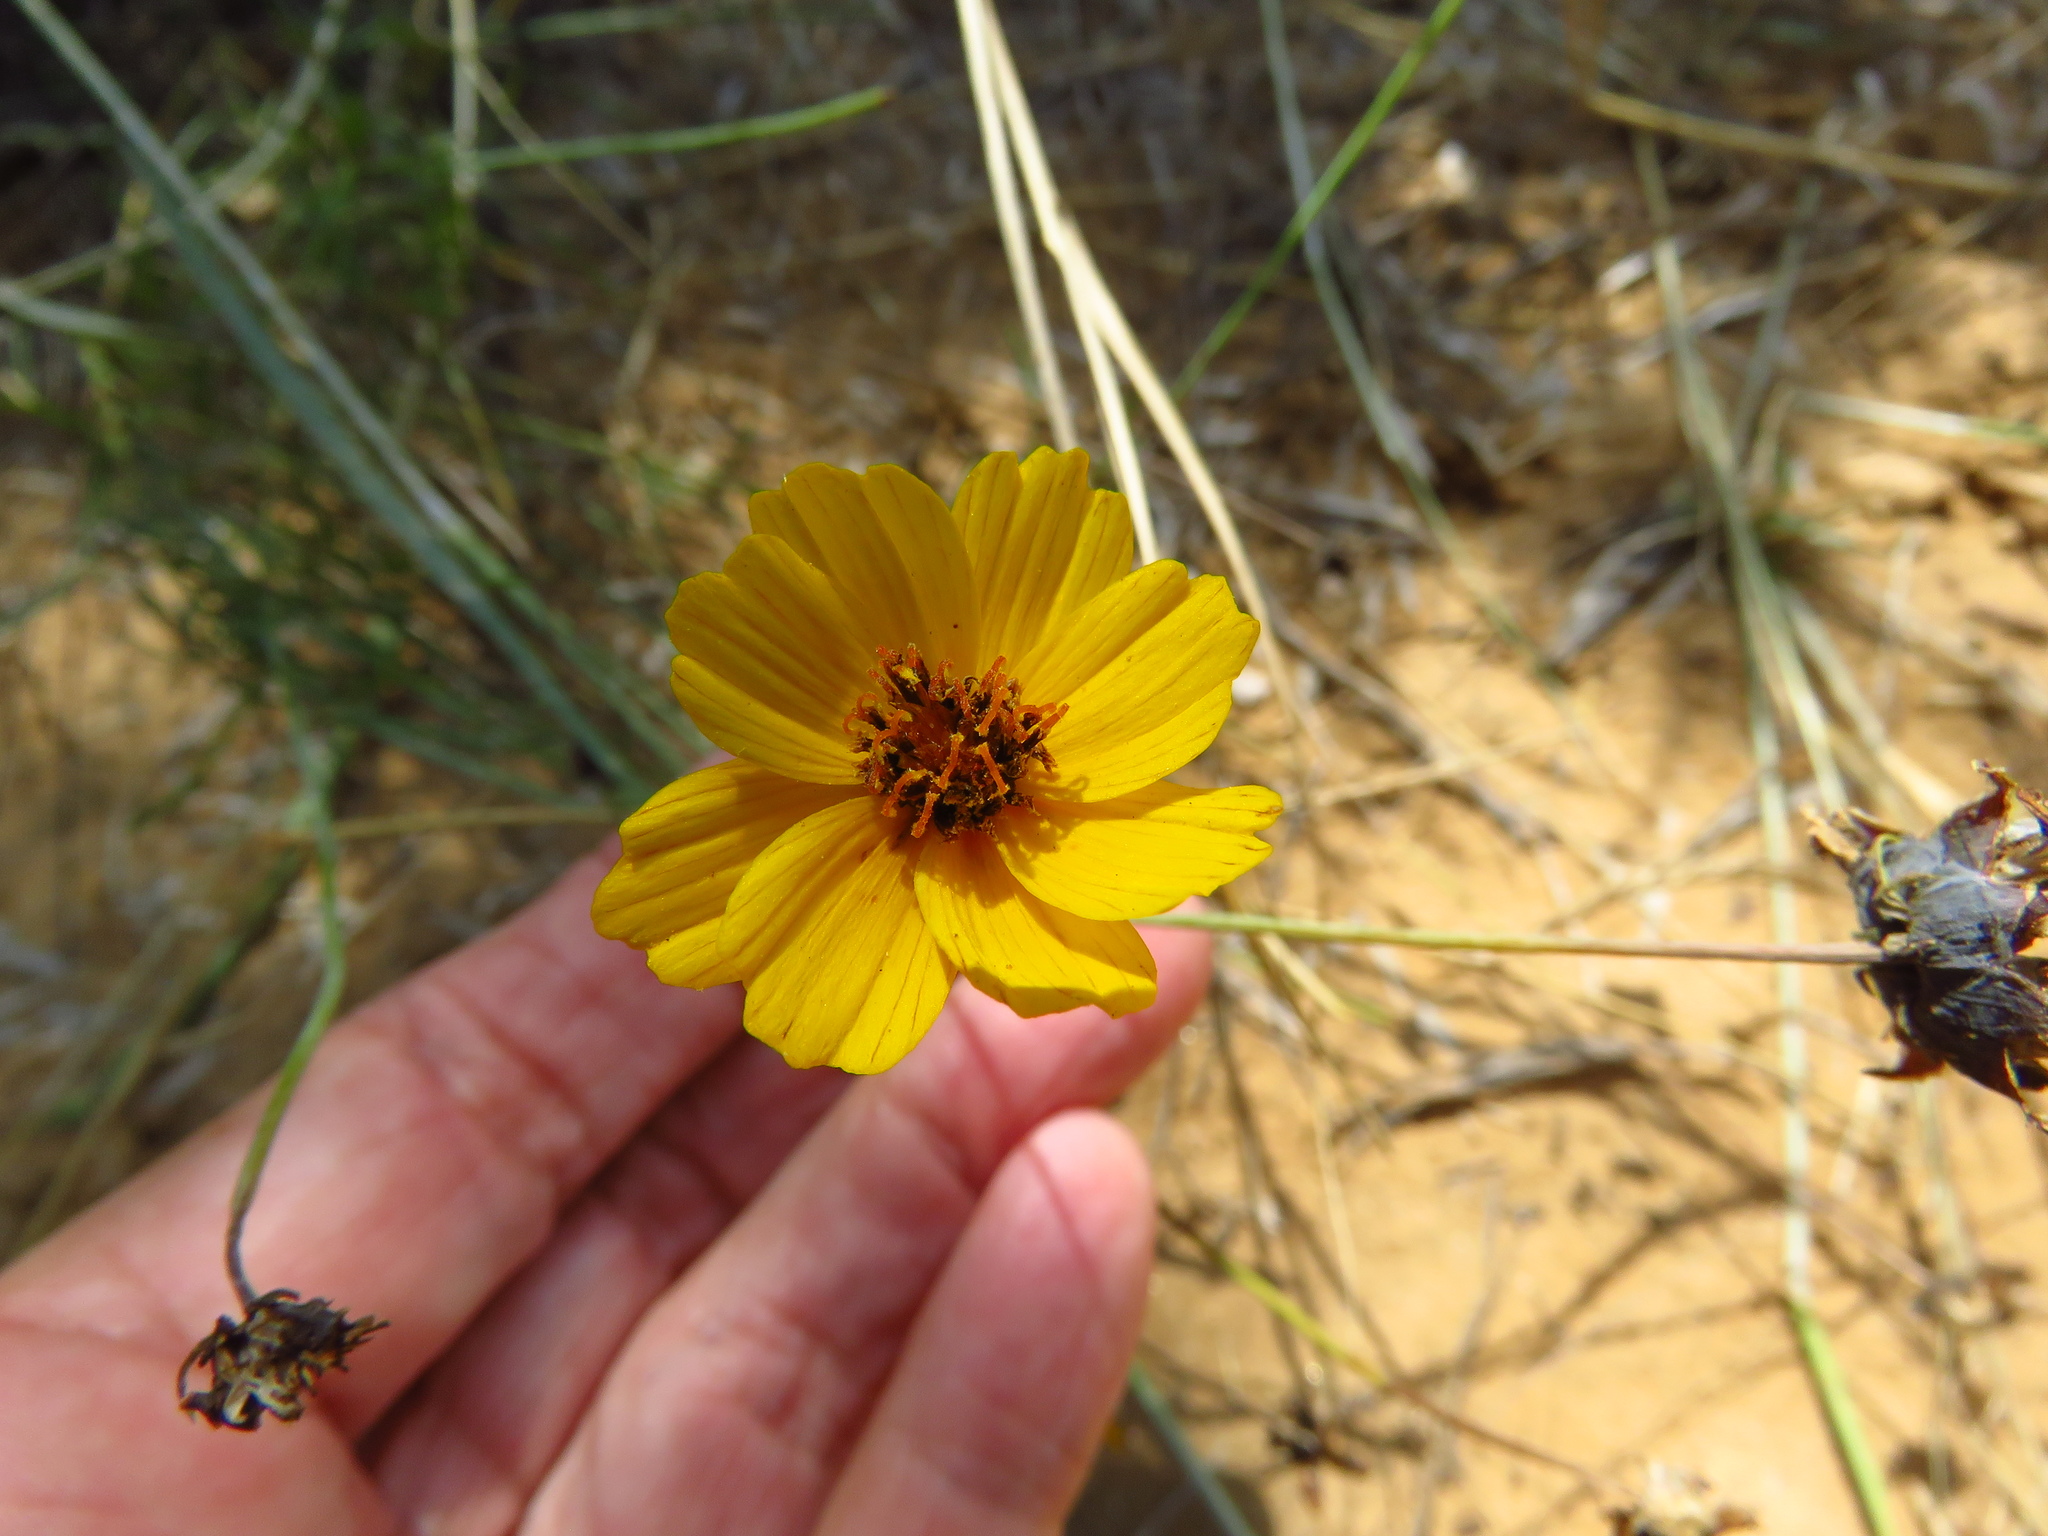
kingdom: Plantae
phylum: Tracheophyta
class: Magnoliopsida
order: Asterales
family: Asteraceae
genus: Thelesperma
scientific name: Thelesperma filifolium
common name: Stiff greenthread
